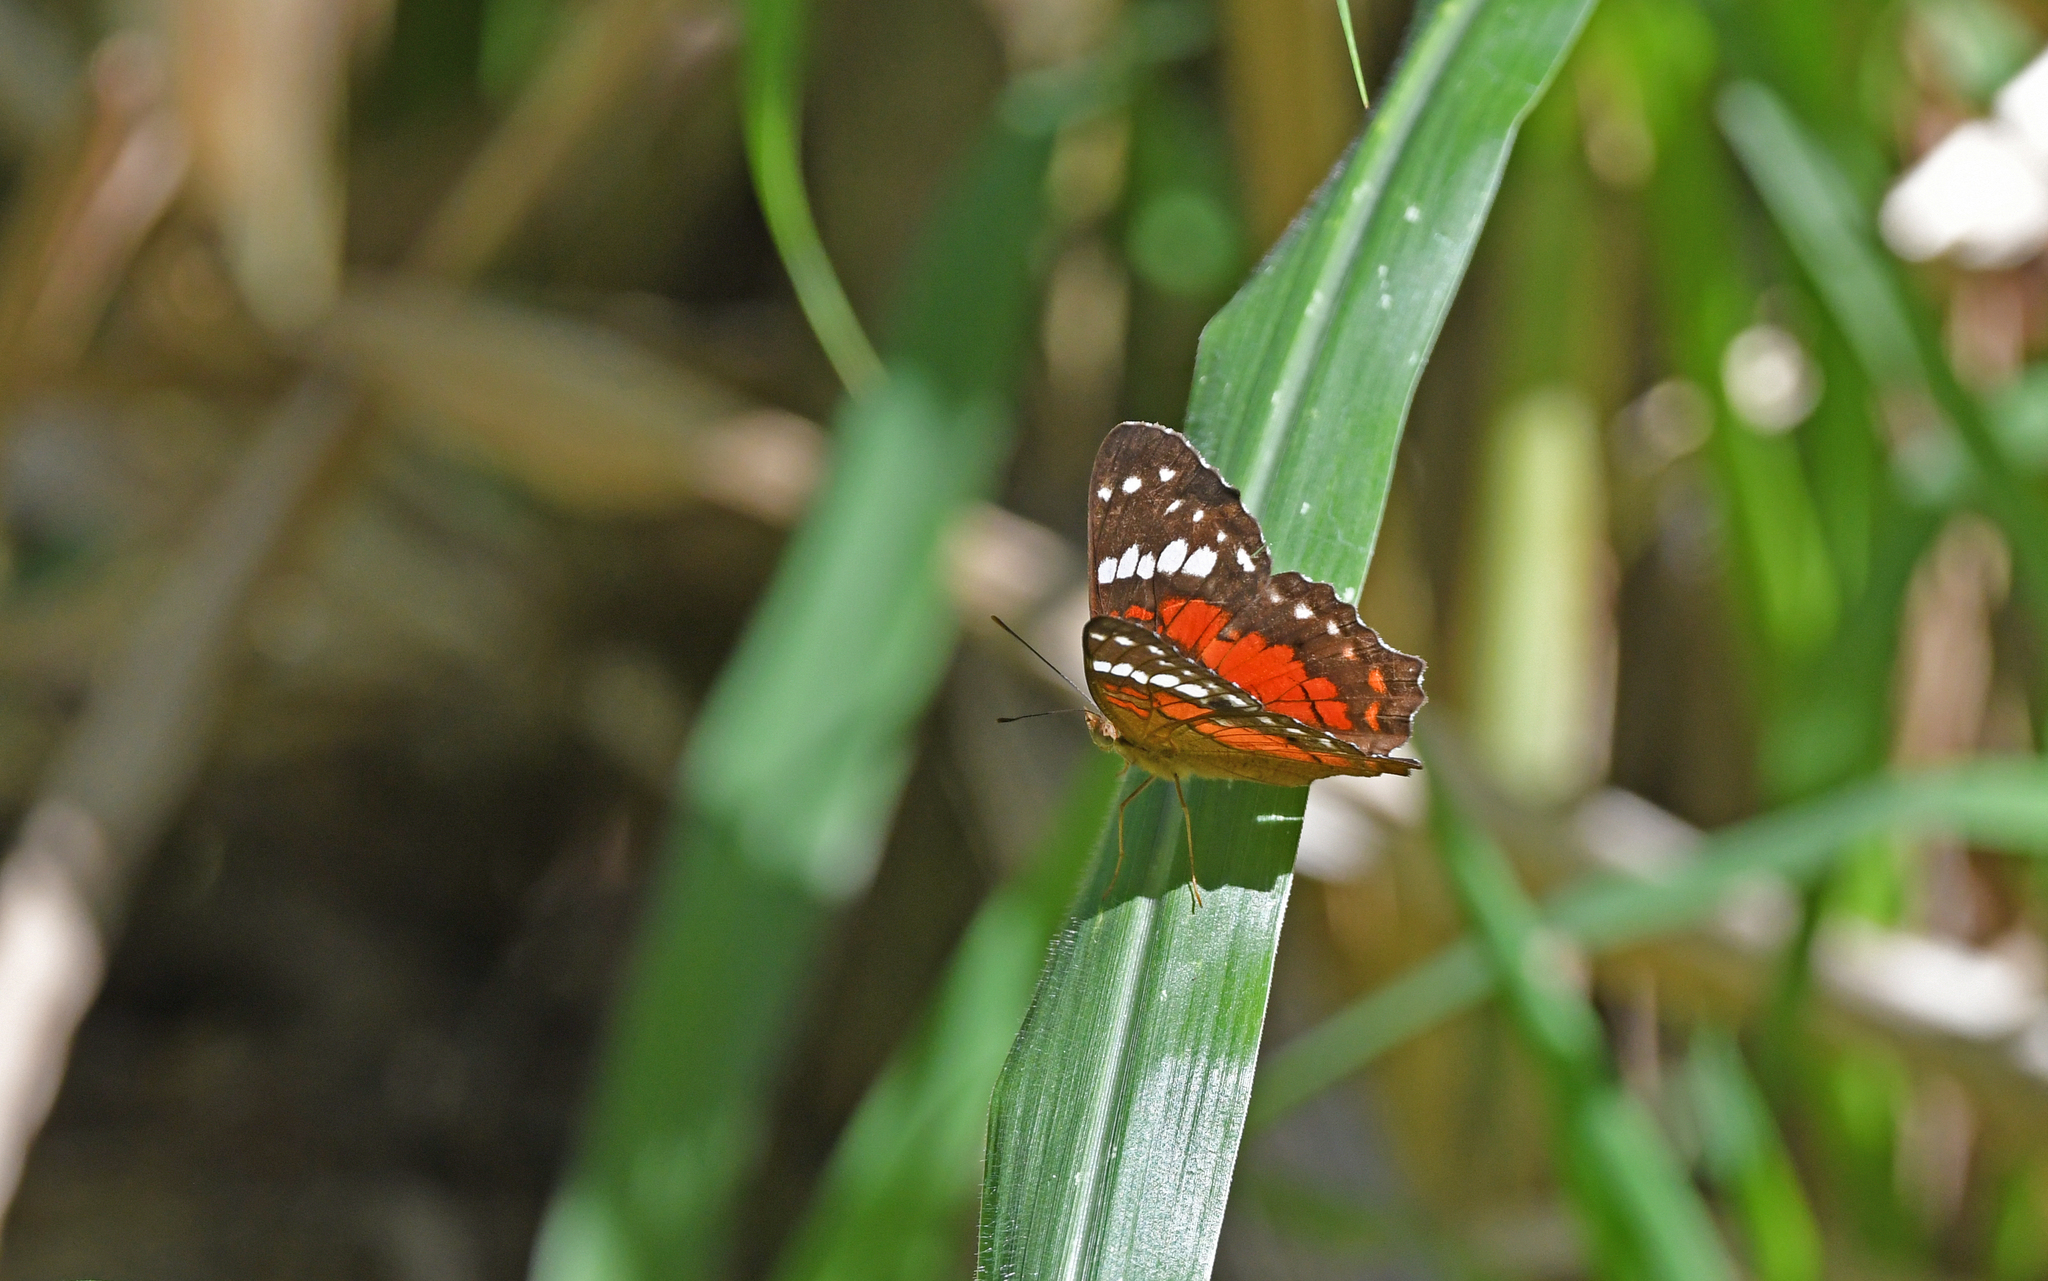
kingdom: Animalia
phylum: Arthropoda
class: Insecta
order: Lepidoptera
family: Nymphalidae
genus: Anartia
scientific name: Anartia amathea
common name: Red peacock
